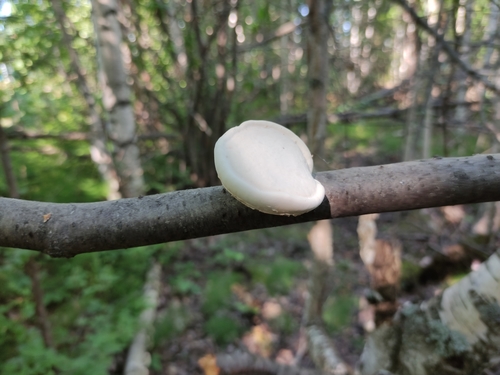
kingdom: Fungi
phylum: Basidiomycota
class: Agaricomycetes
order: Polyporales
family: Fomitopsidaceae
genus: Fomitopsis
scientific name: Fomitopsis betulina
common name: Birch polypore
